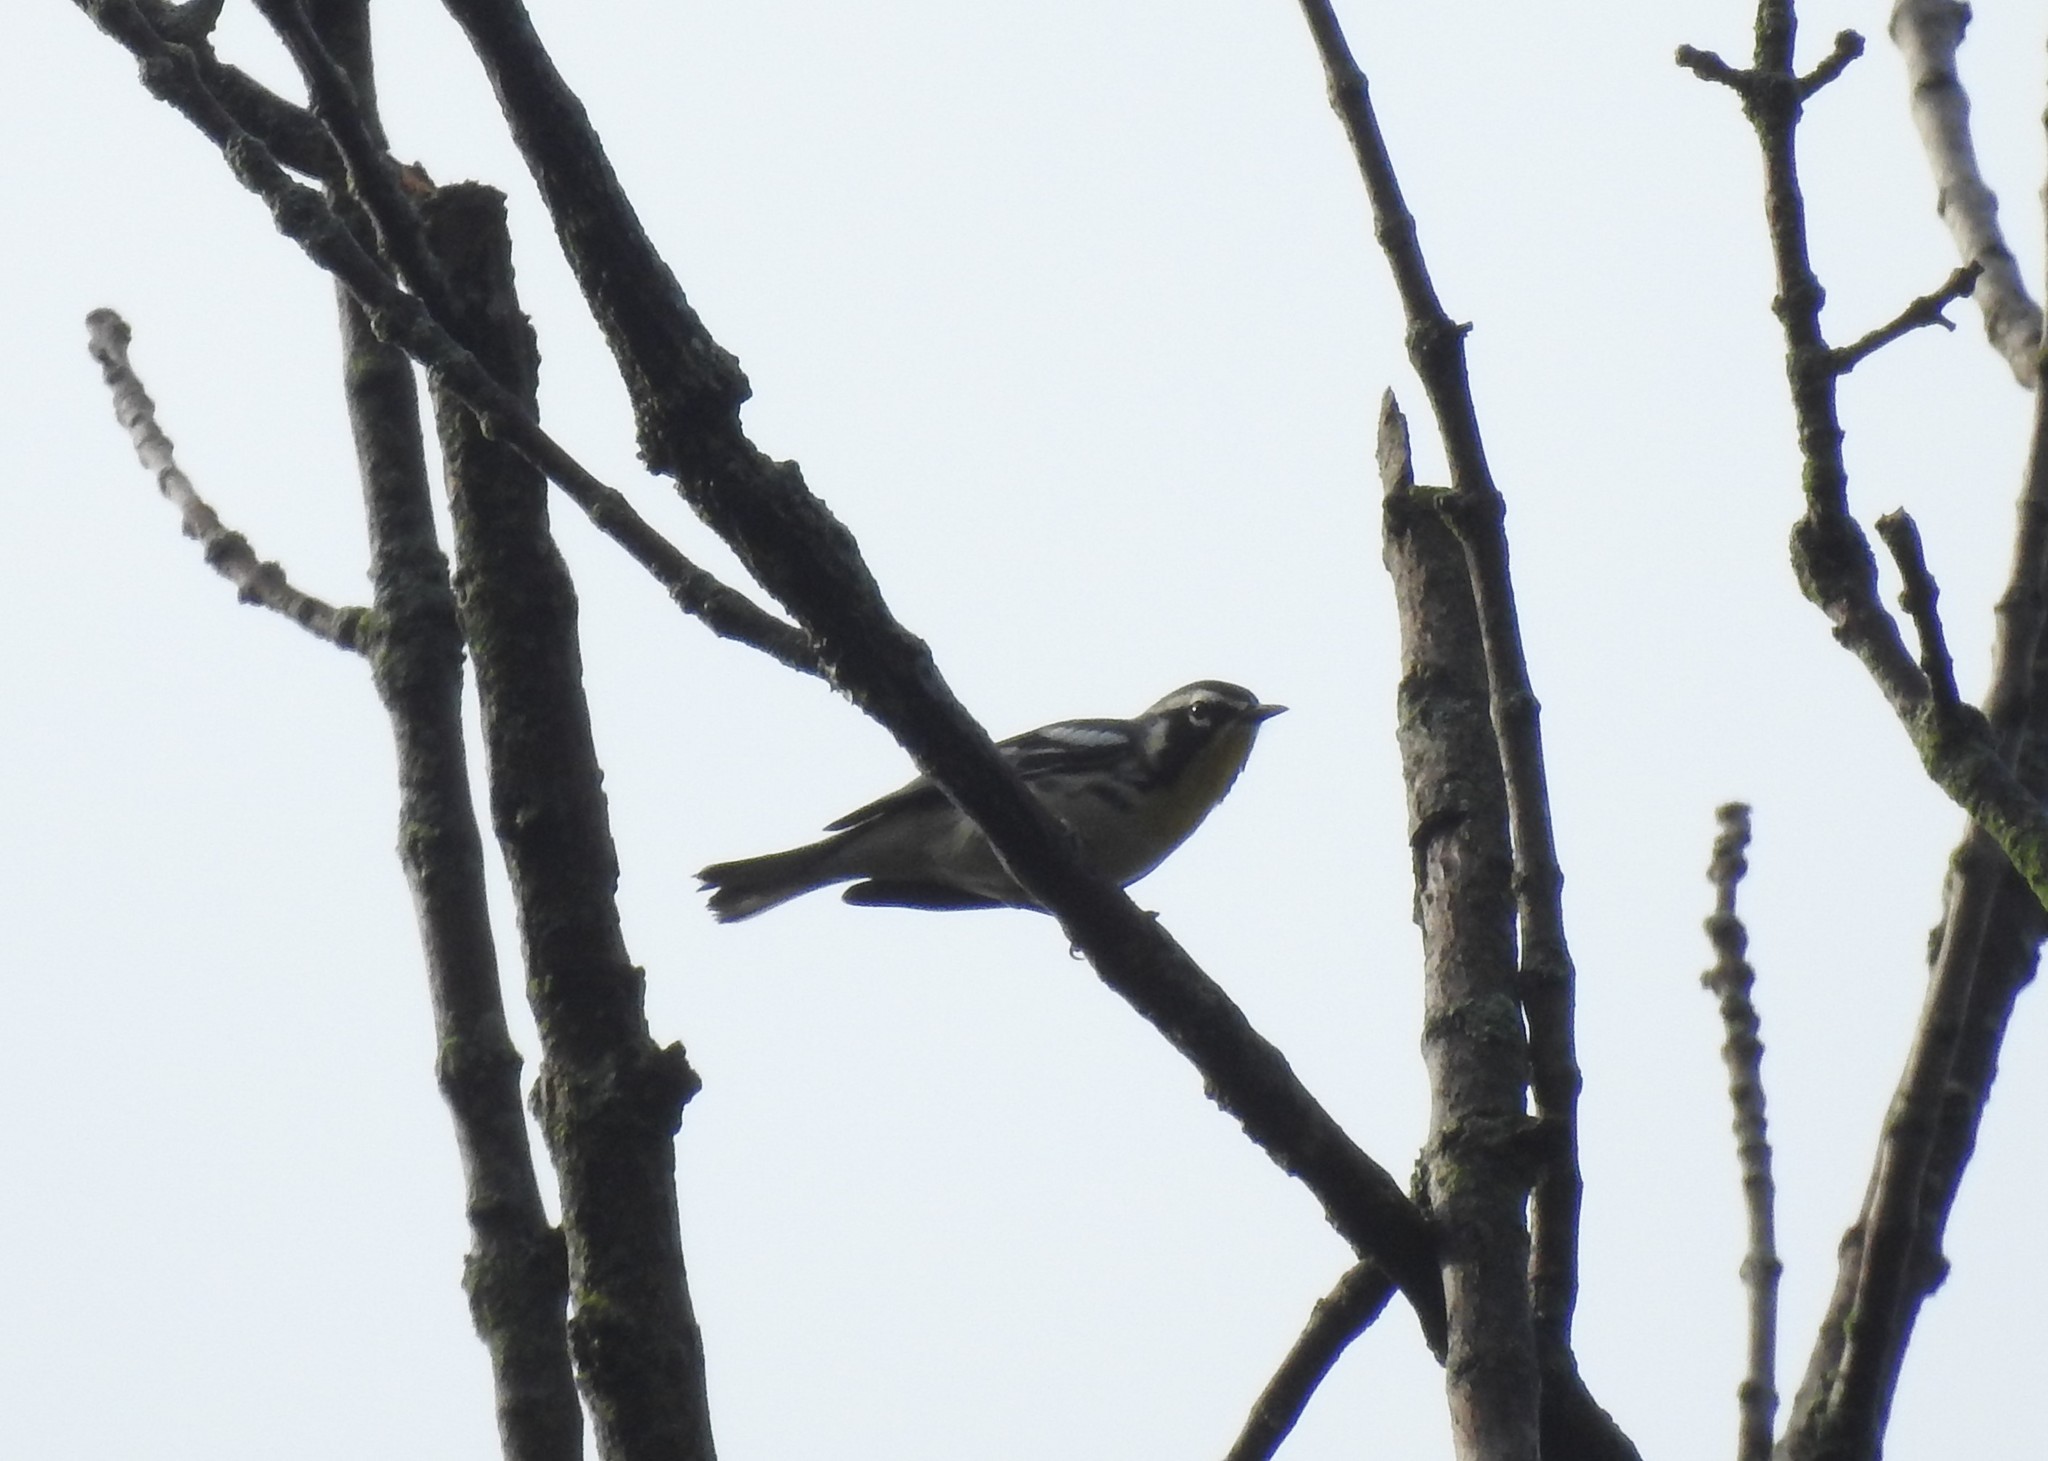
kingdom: Animalia
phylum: Chordata
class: Aves
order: Passeriformes
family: Parulidae
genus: Setophaga
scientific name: Setophaga dominica
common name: Yellow-throated warbler
